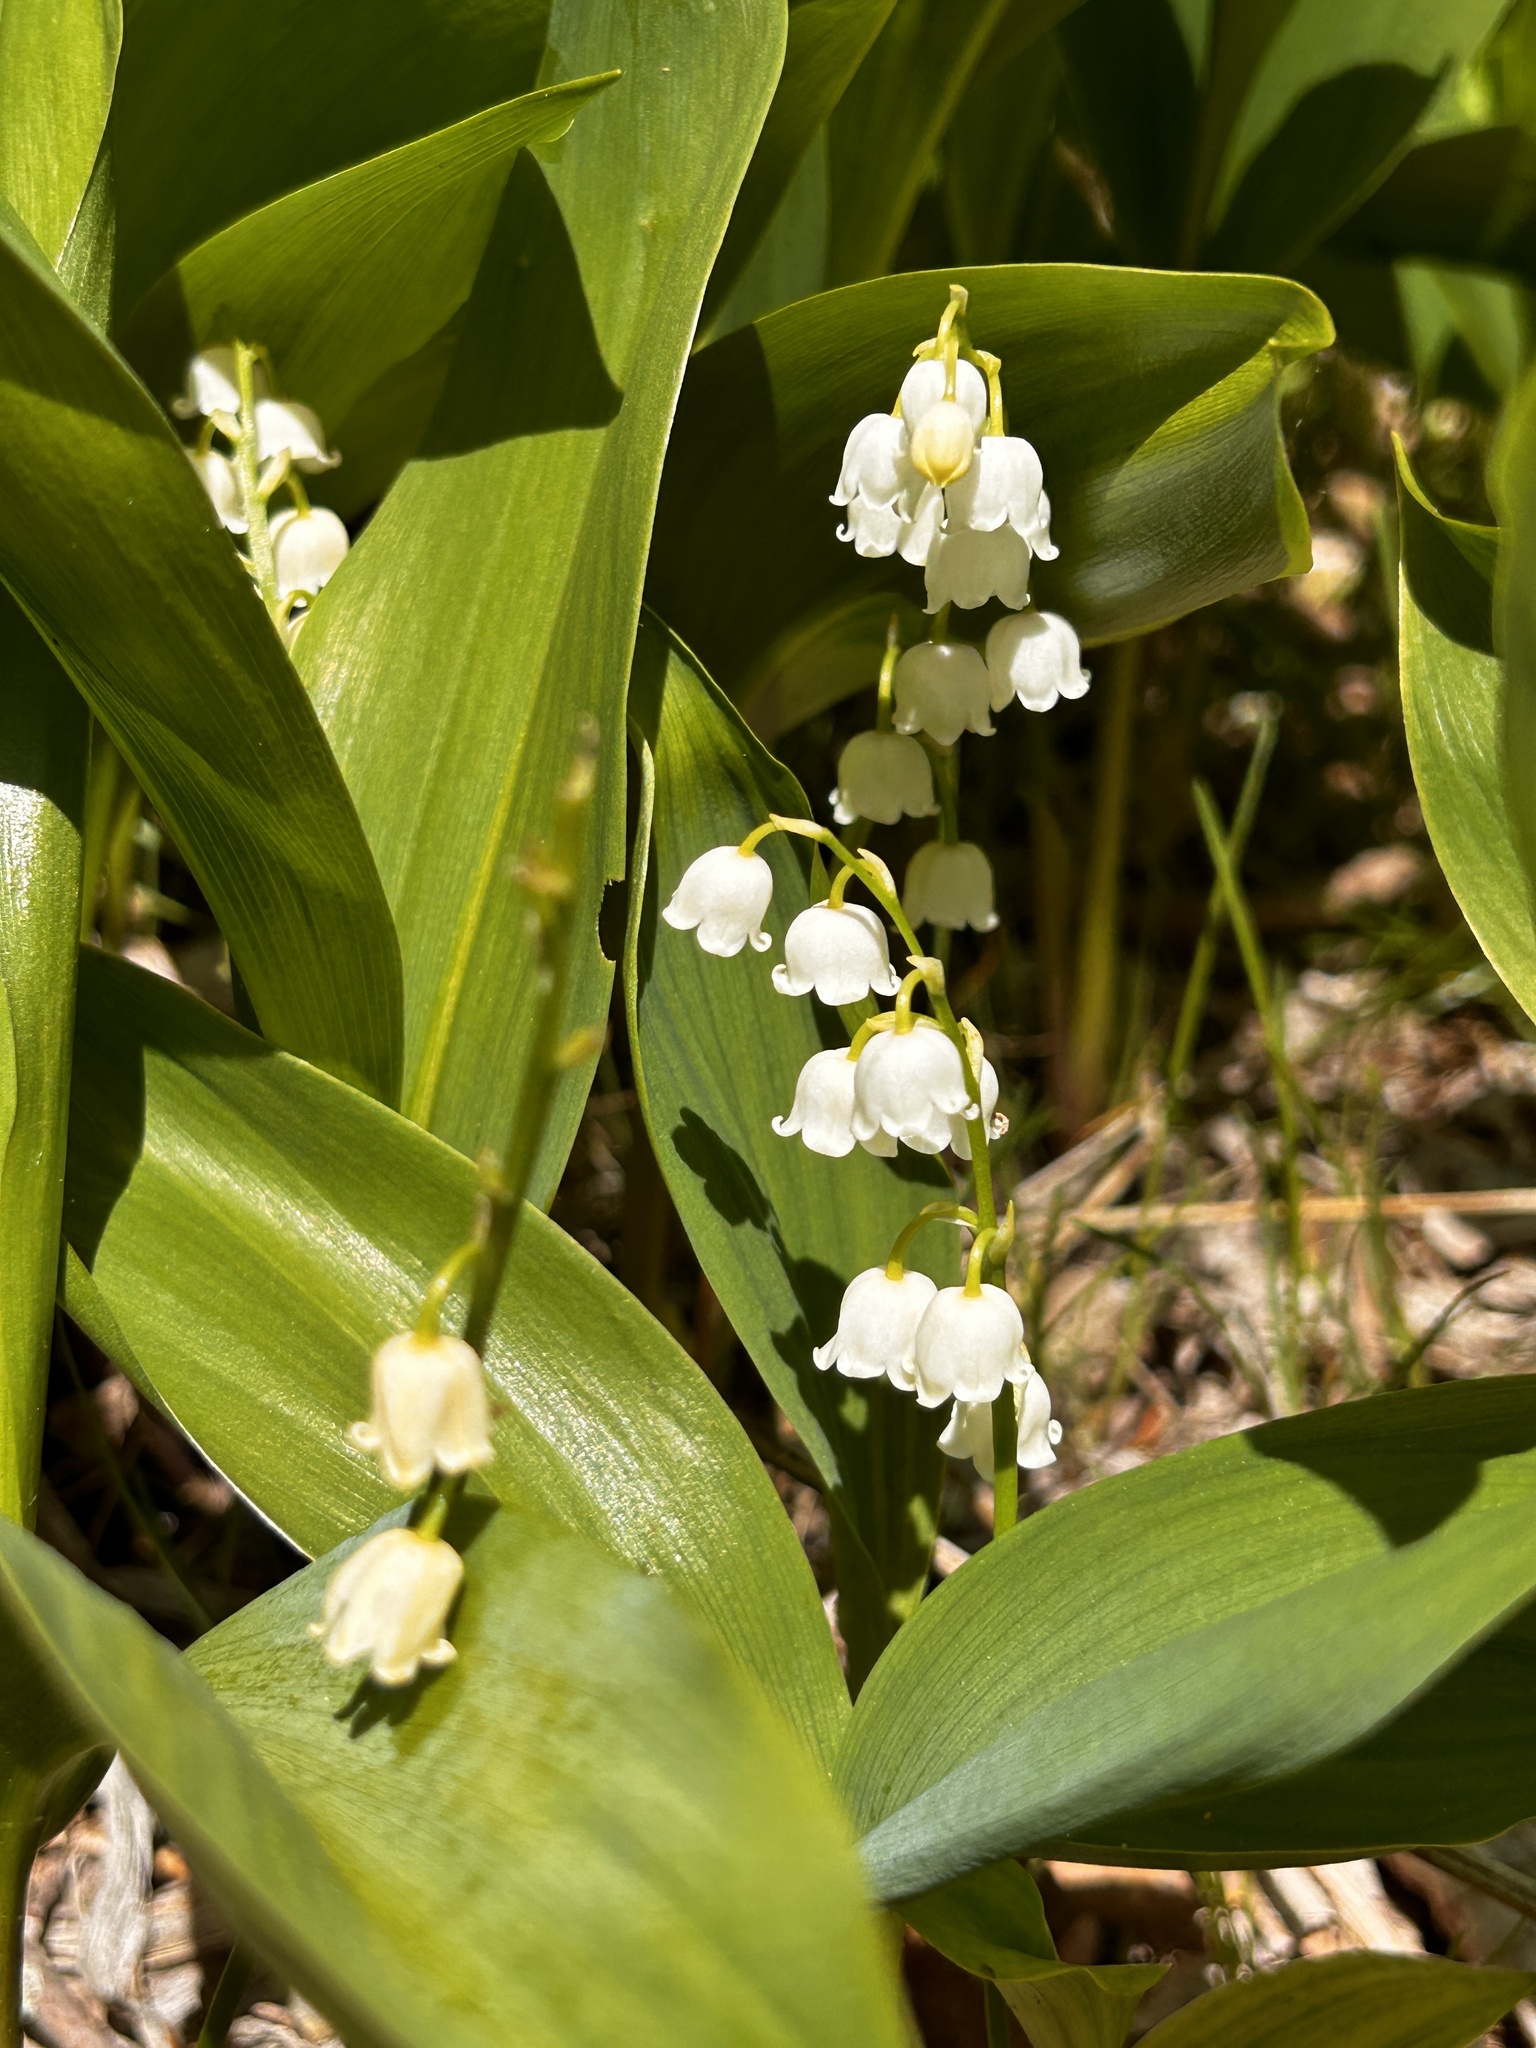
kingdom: Plantae
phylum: Tracheophyta
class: Liliopsida
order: Asparagales
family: Asparagaceae
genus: Convallaria
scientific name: Convallaria majalis
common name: Lily-of-the-valley
